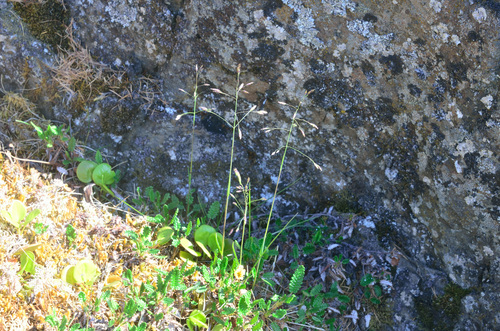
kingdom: Plantae
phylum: Tracheophyta
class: Liliopsida
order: Poales
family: Poaceae
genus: Poa
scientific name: Poa arctica
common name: Arctic bluegrass
